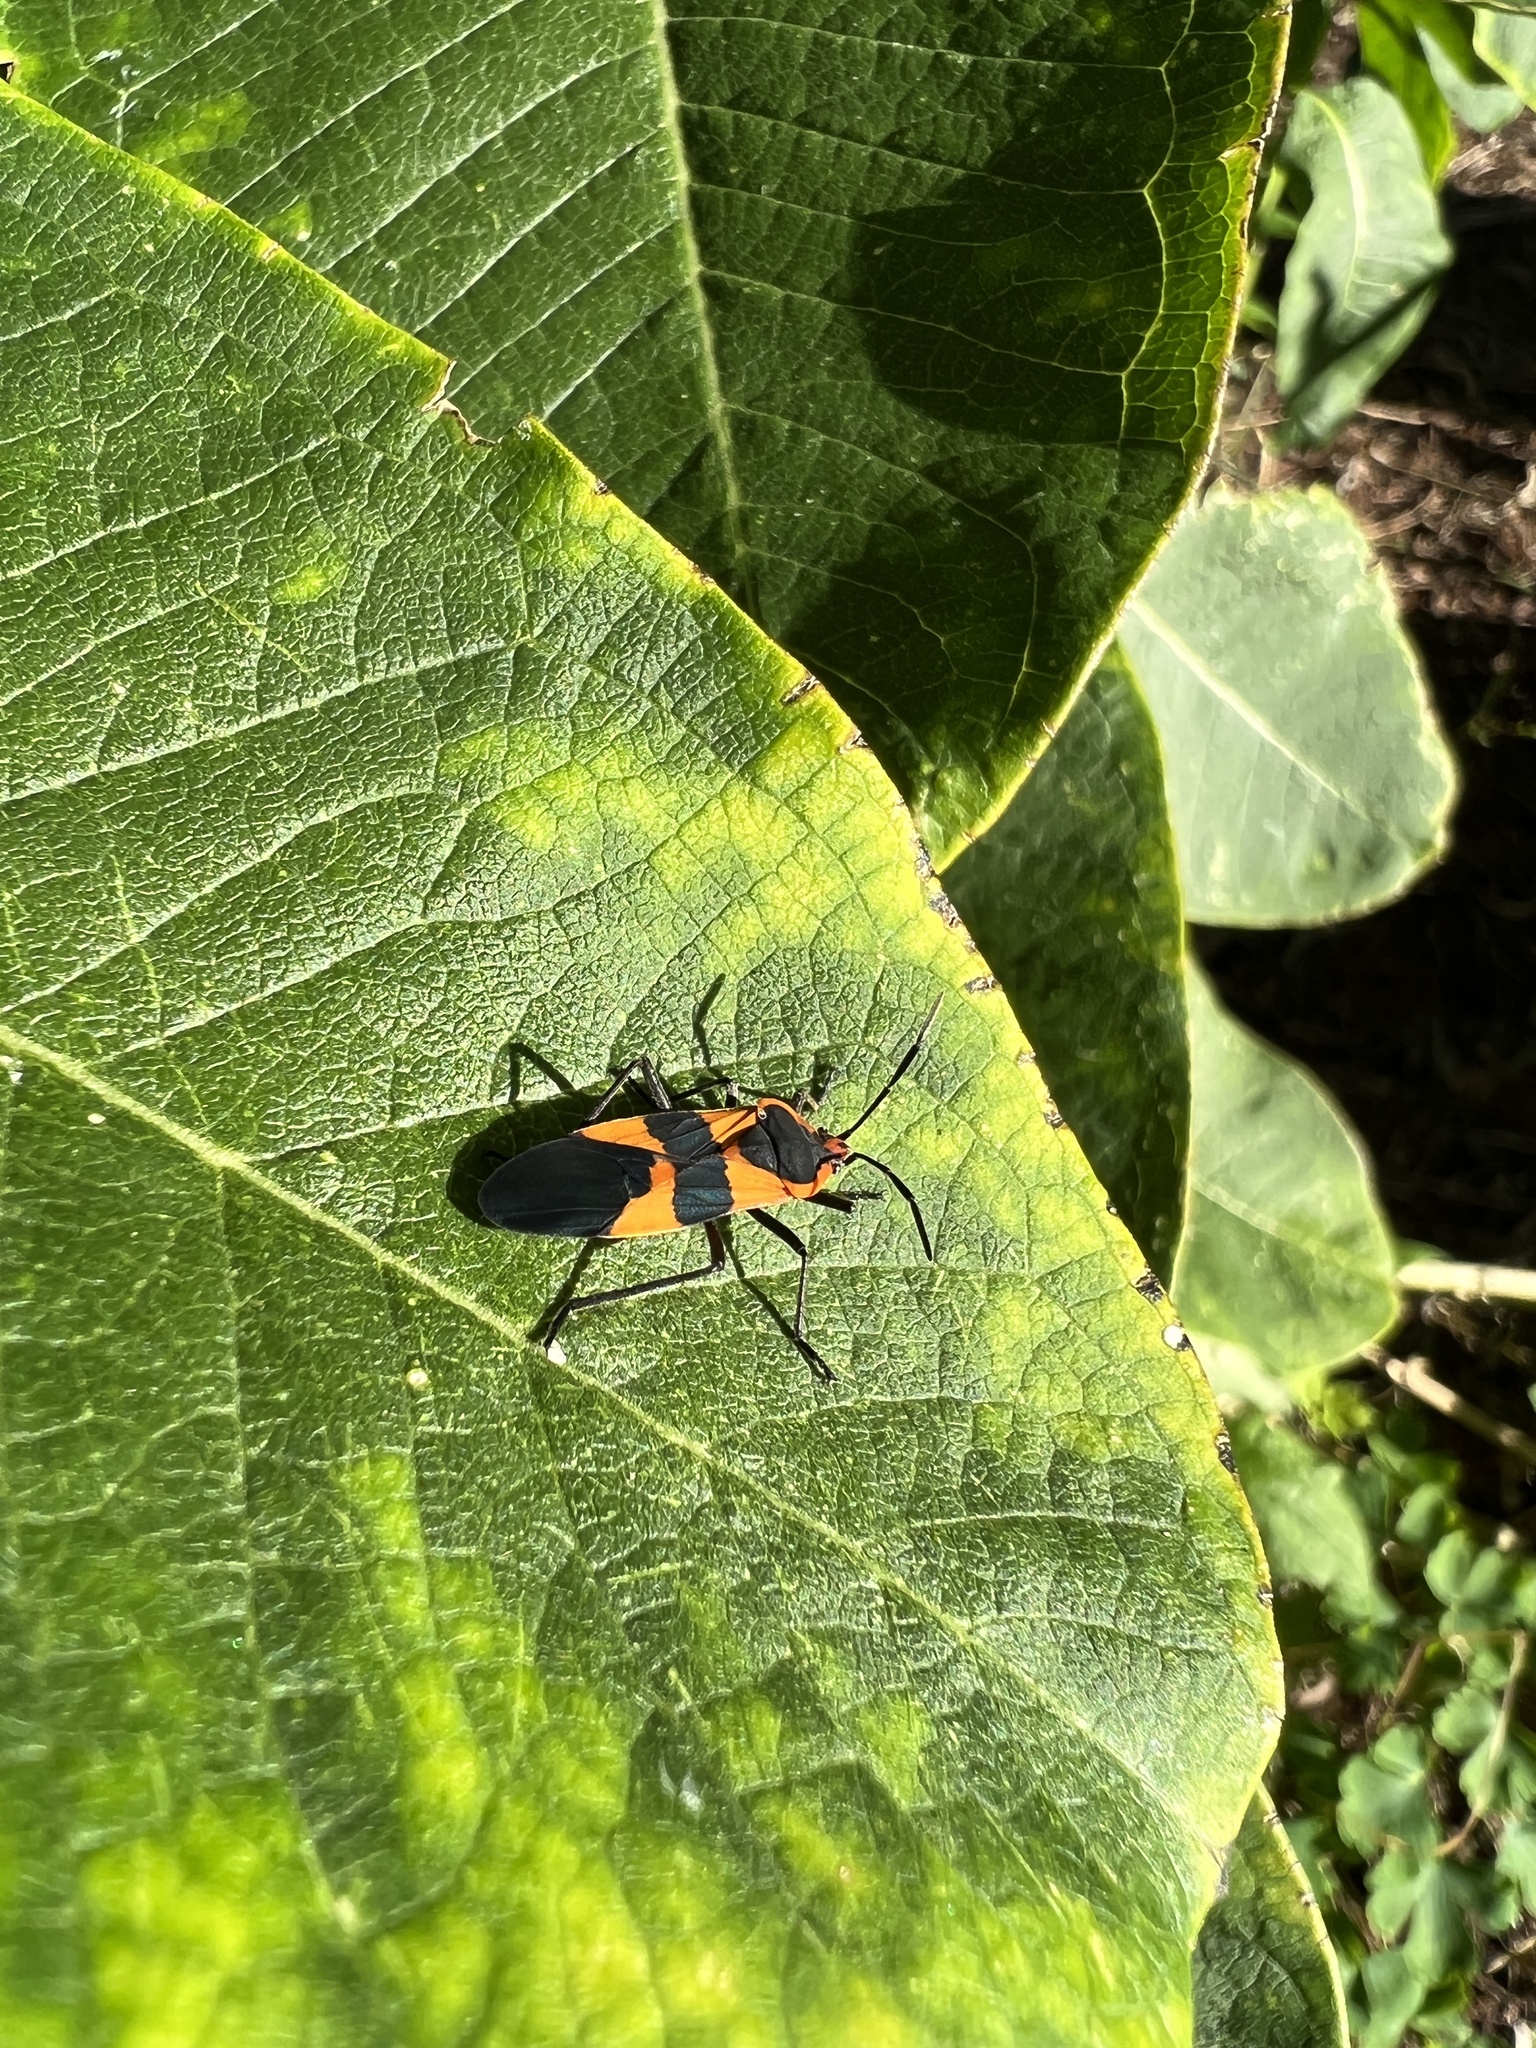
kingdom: Animalia
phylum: Arthropoda
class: Insecta
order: Hemiptera
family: Lygaeidae
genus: Oncopeltus
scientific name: Oncopeltus fasciatus
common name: Large milkweed bug
